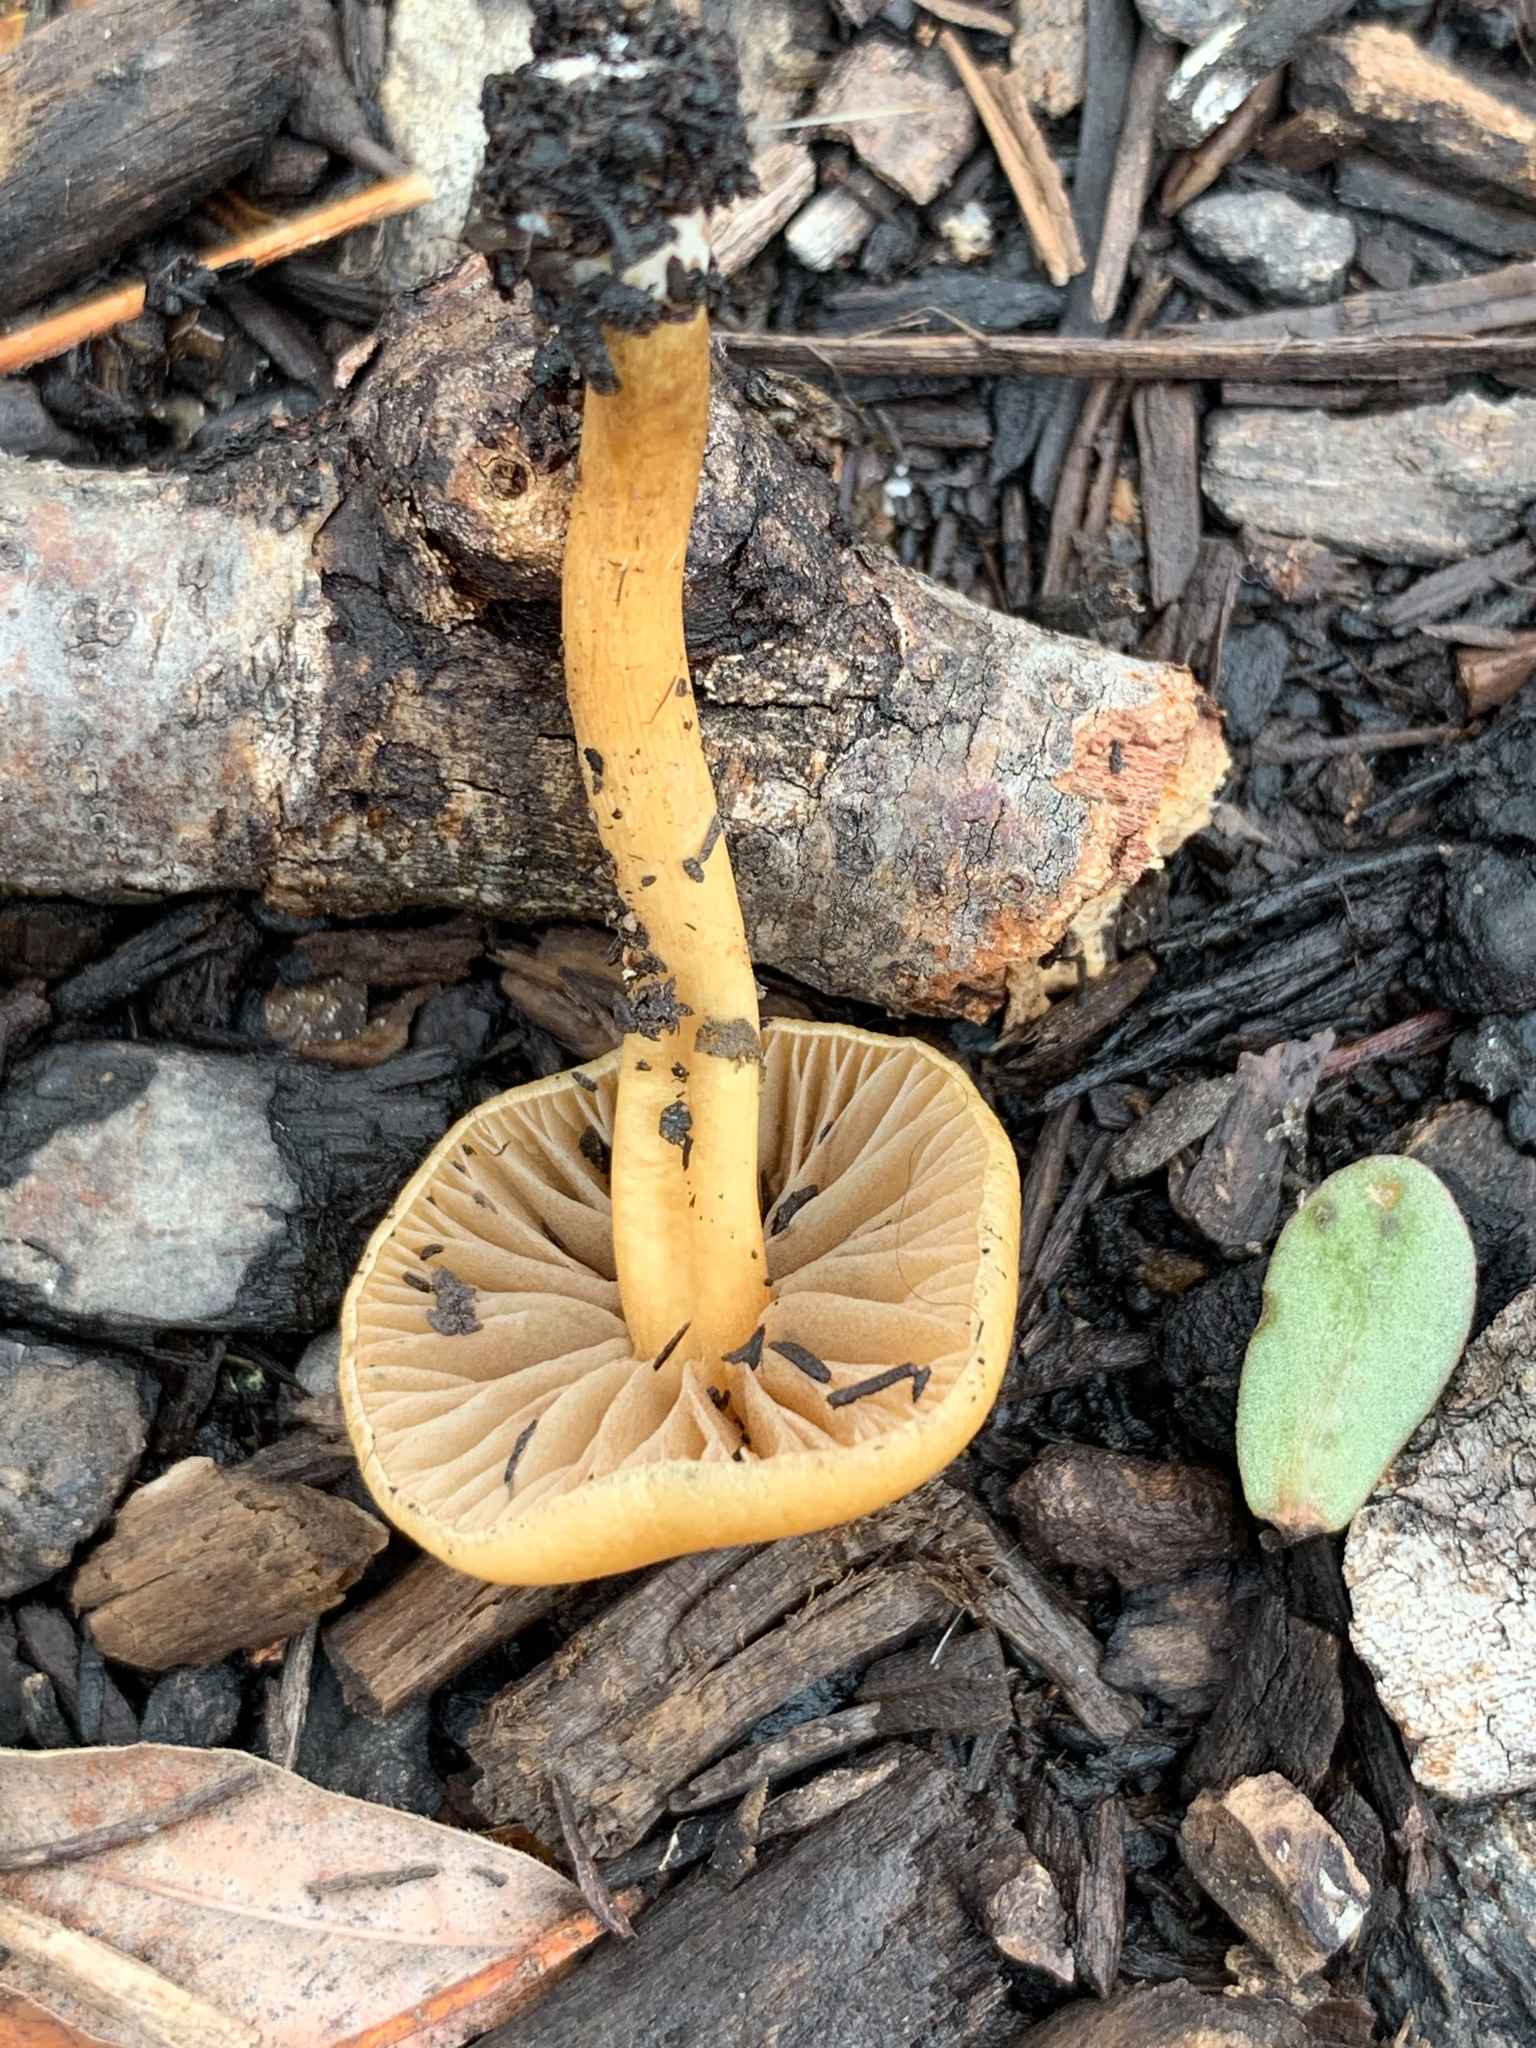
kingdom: Fungi
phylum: Basidiomycota
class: Agaricomycetes
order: Agaricales
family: Tubariaceae
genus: Tubaria
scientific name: Tubaria furfuracea
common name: Scurfy twiglet
